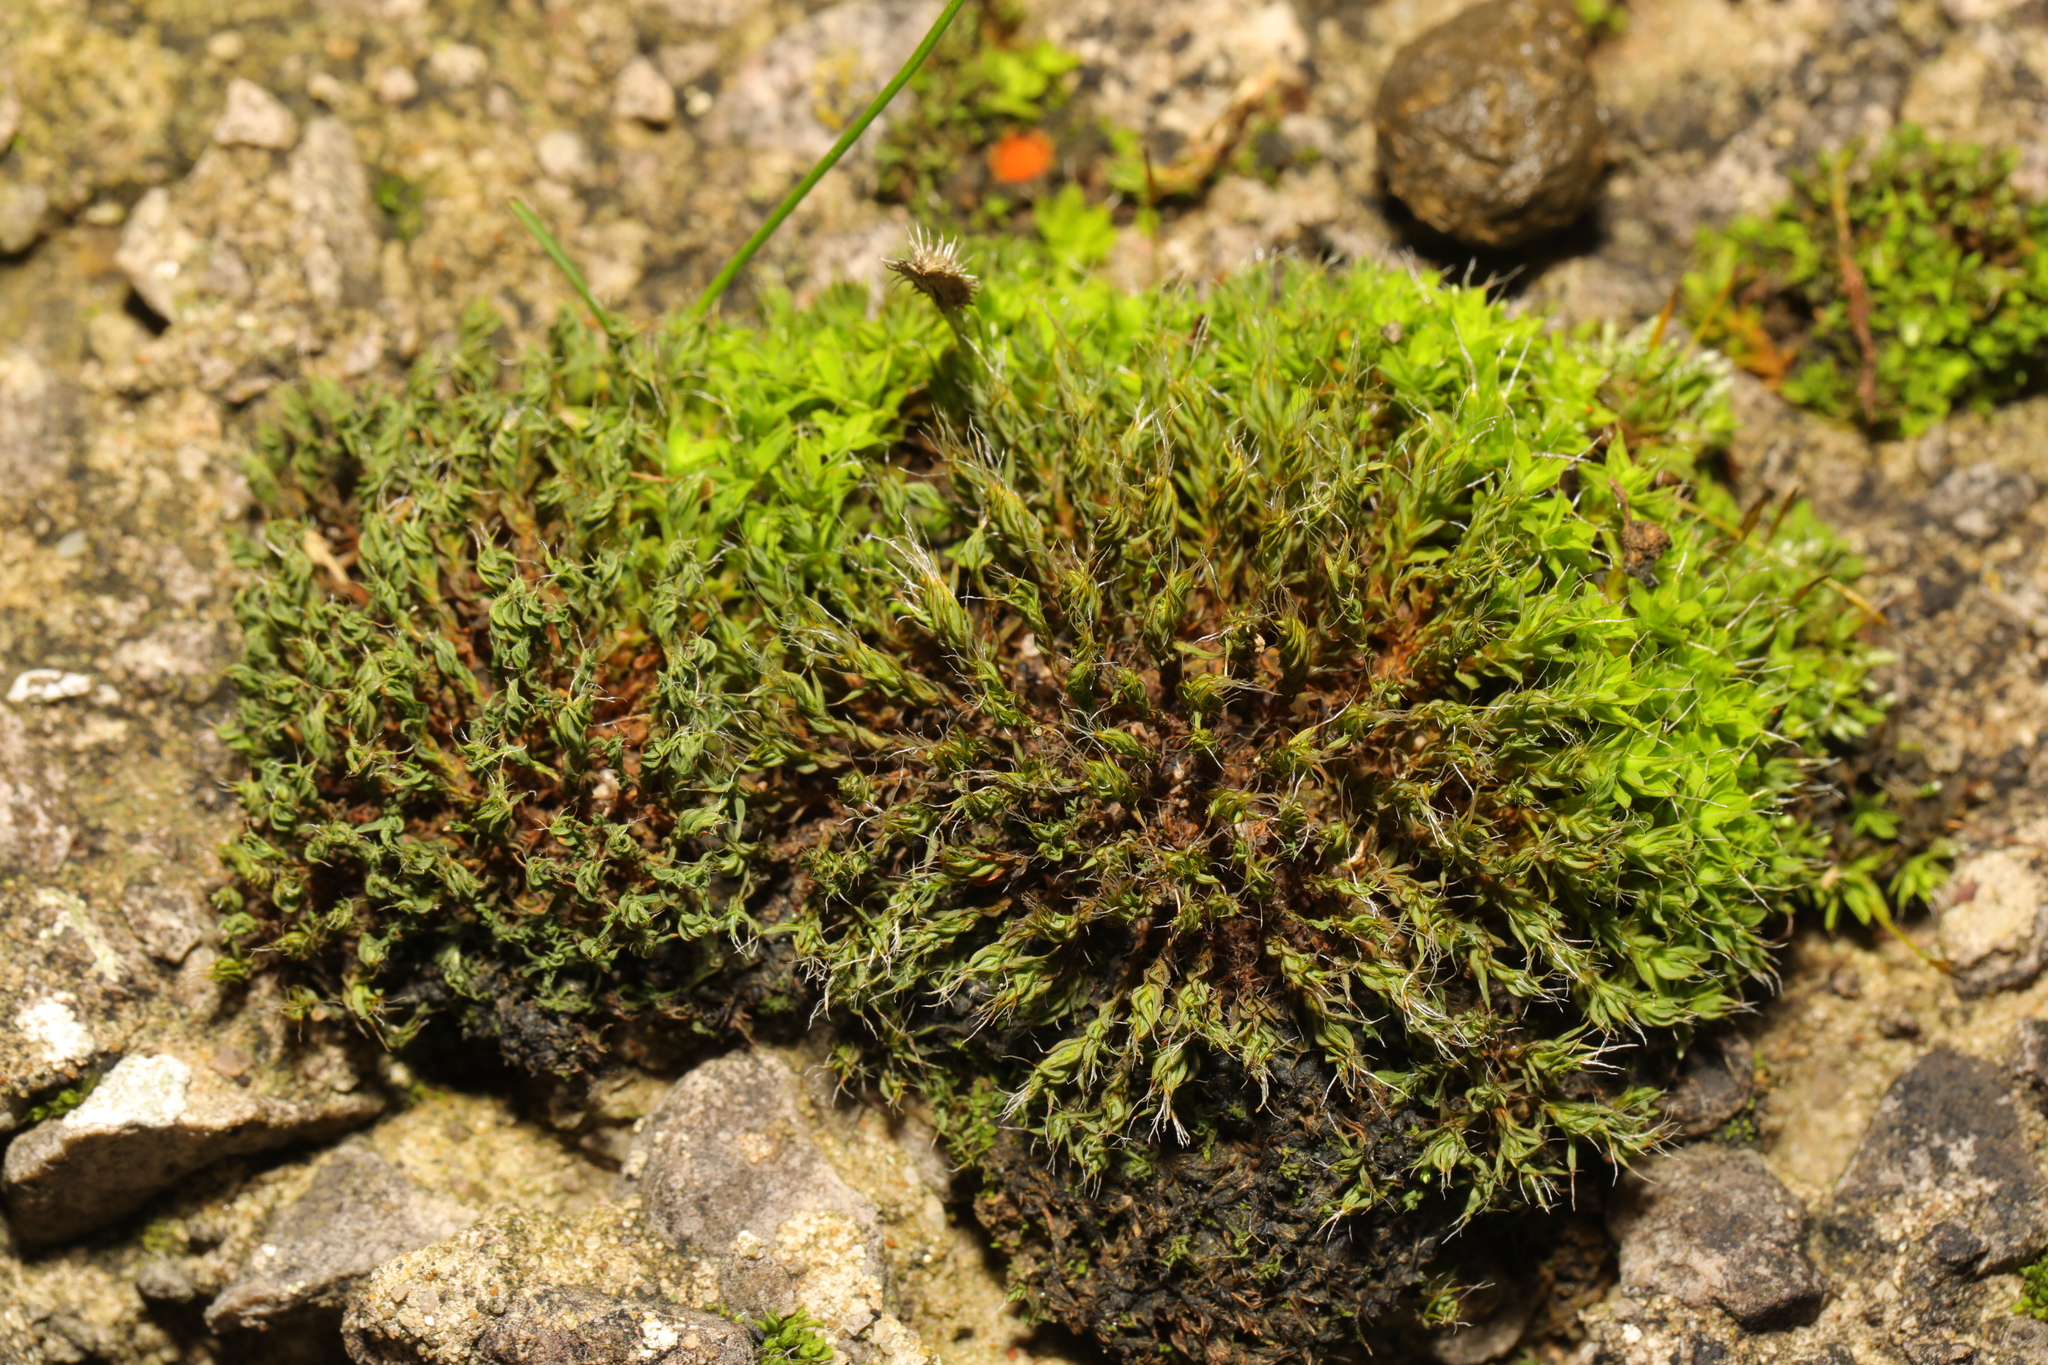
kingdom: Plantae
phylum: Bryophyta
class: Bryopsida
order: Pottiales
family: Pottiaceae
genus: Syntrichia
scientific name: Syntrichia ruralis
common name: Sidewalk screw moss
